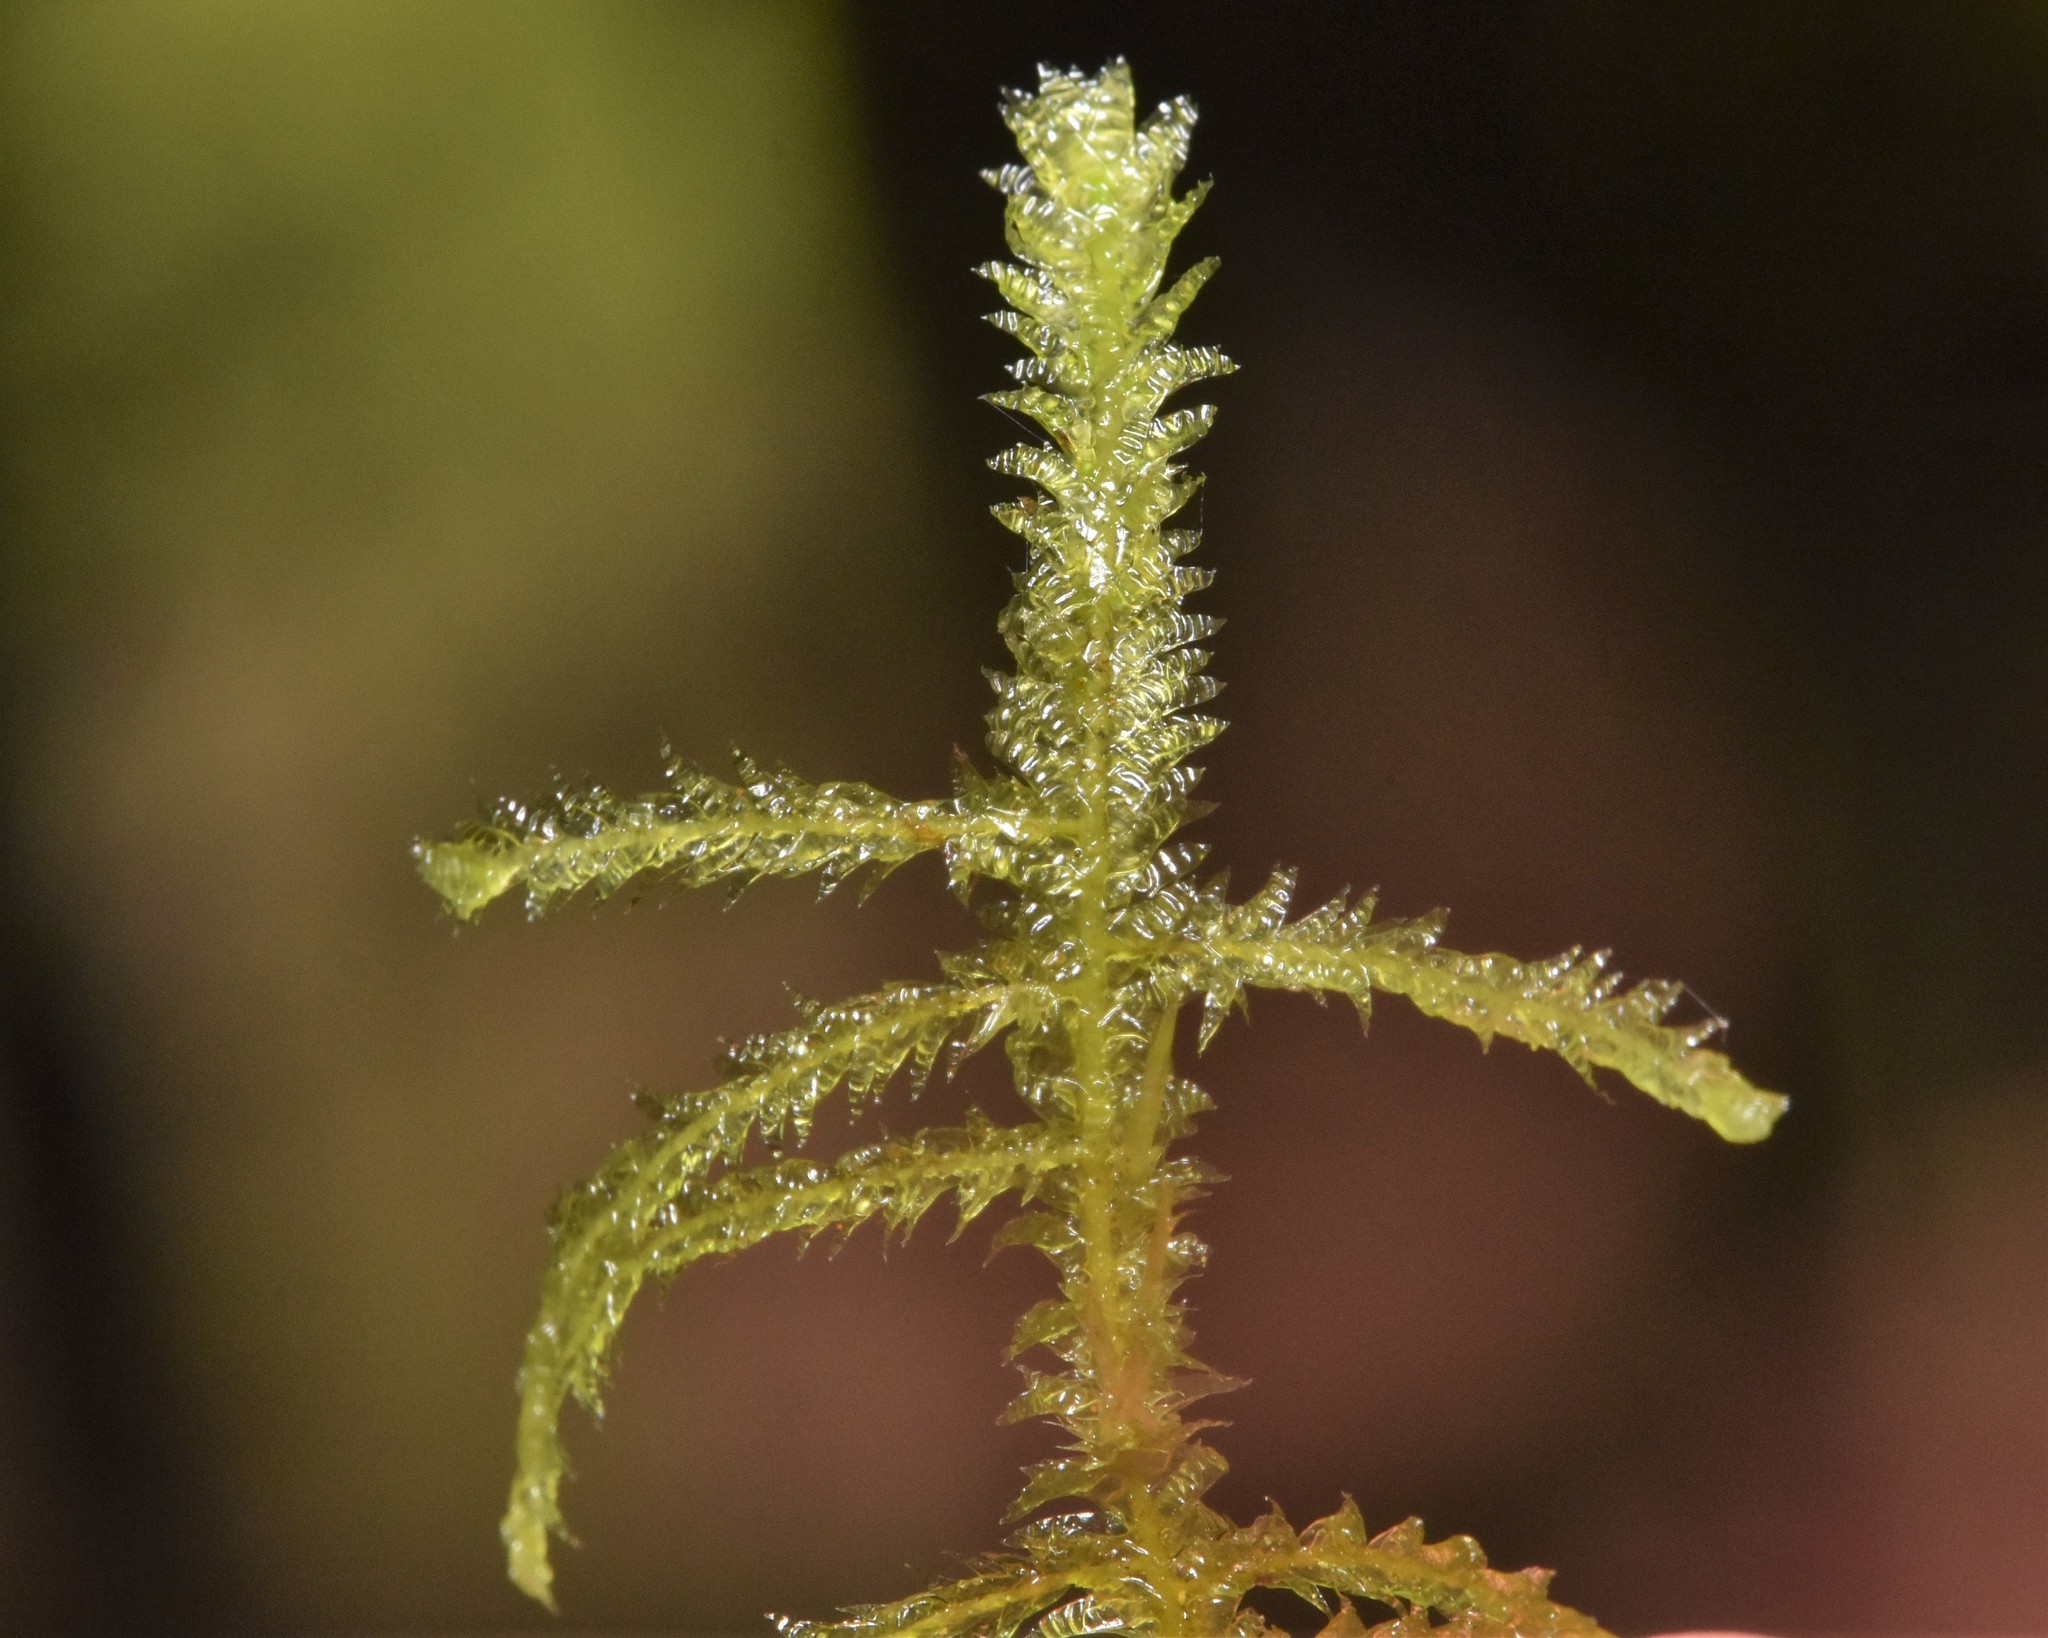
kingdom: Plantae
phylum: Bryophyta
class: Bryopsida
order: Hypnales
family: Neckeraceae
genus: Neckera
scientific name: Neckera douglasii
